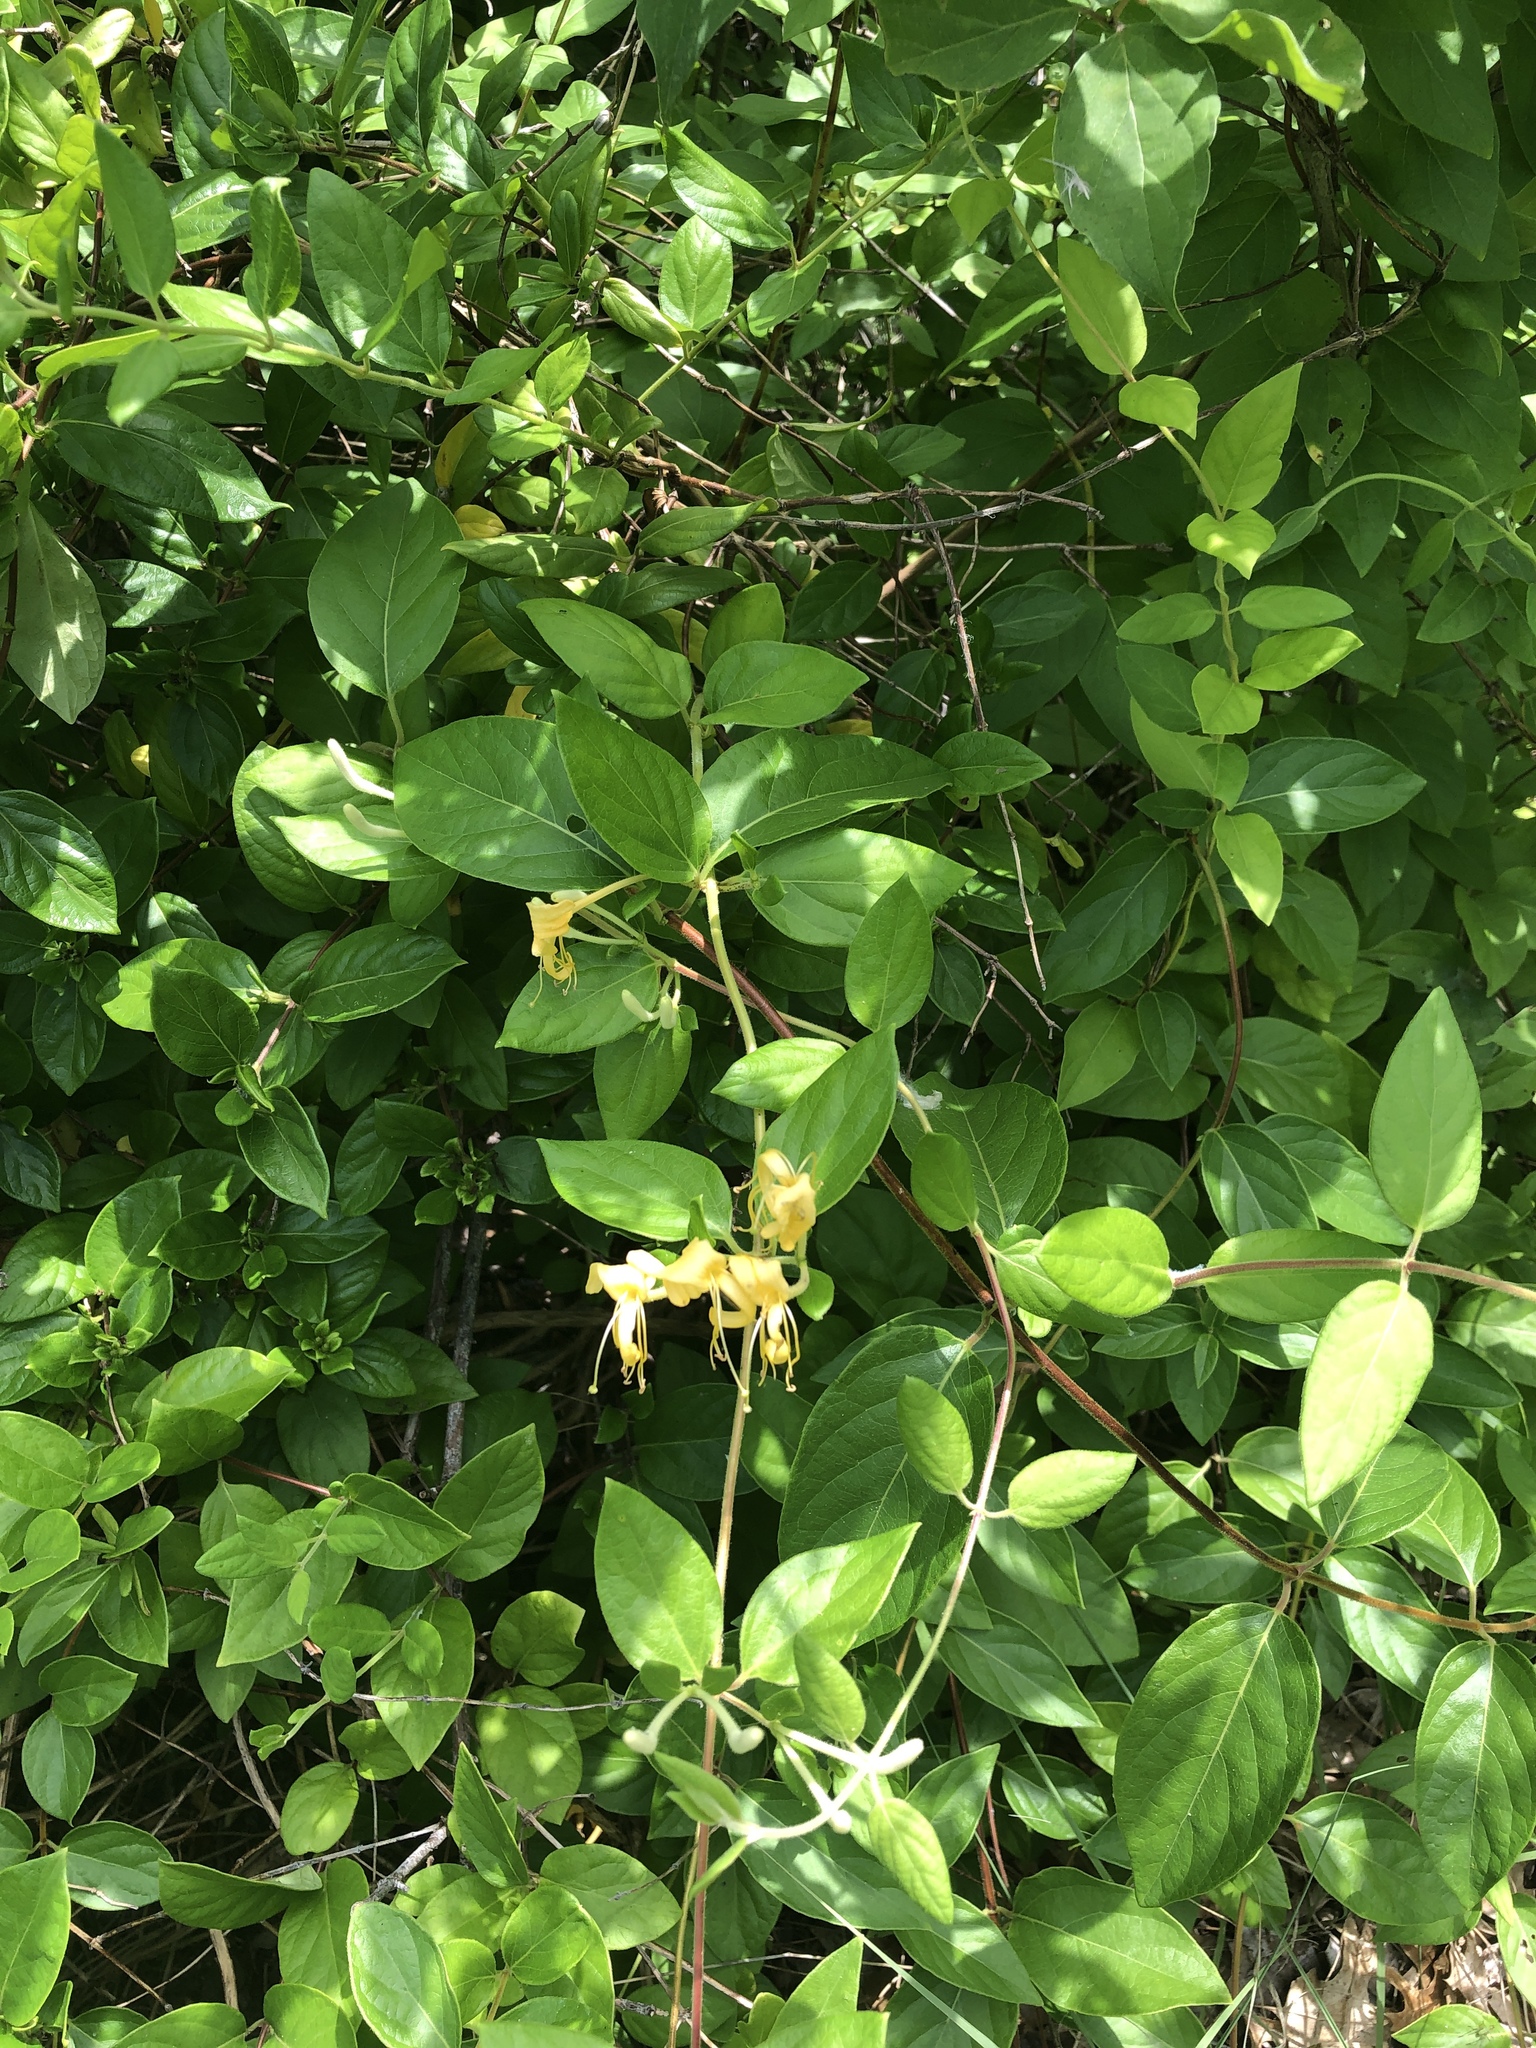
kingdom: Plantae
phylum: Tracheophyta
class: Magnoliopsida
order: Dipsacales
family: Caprifoliaceae
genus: Lonicera
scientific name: Lonicera japonica
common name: Japanese honeysuckle
